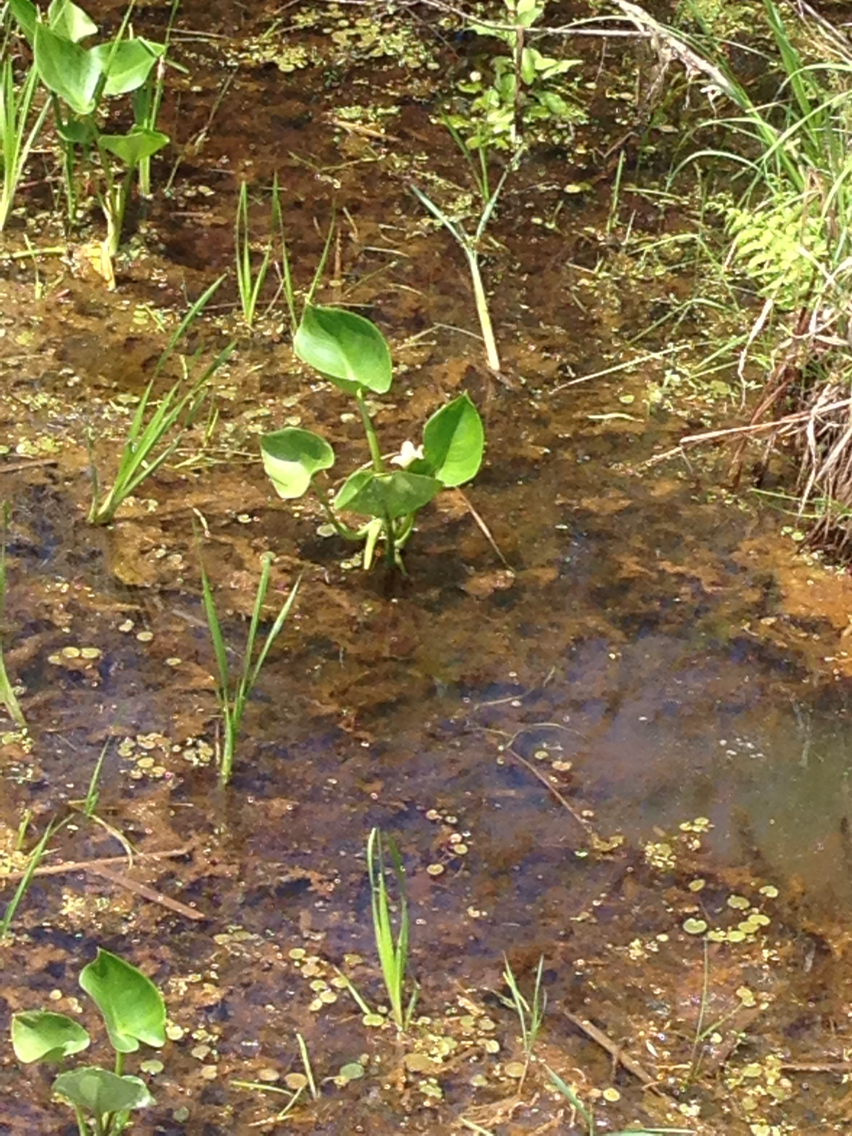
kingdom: Plantae
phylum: Tracheophyta
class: Liliopsida
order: Alismatales
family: Araceae
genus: Calla
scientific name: Calla palustris
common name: Bog arum
